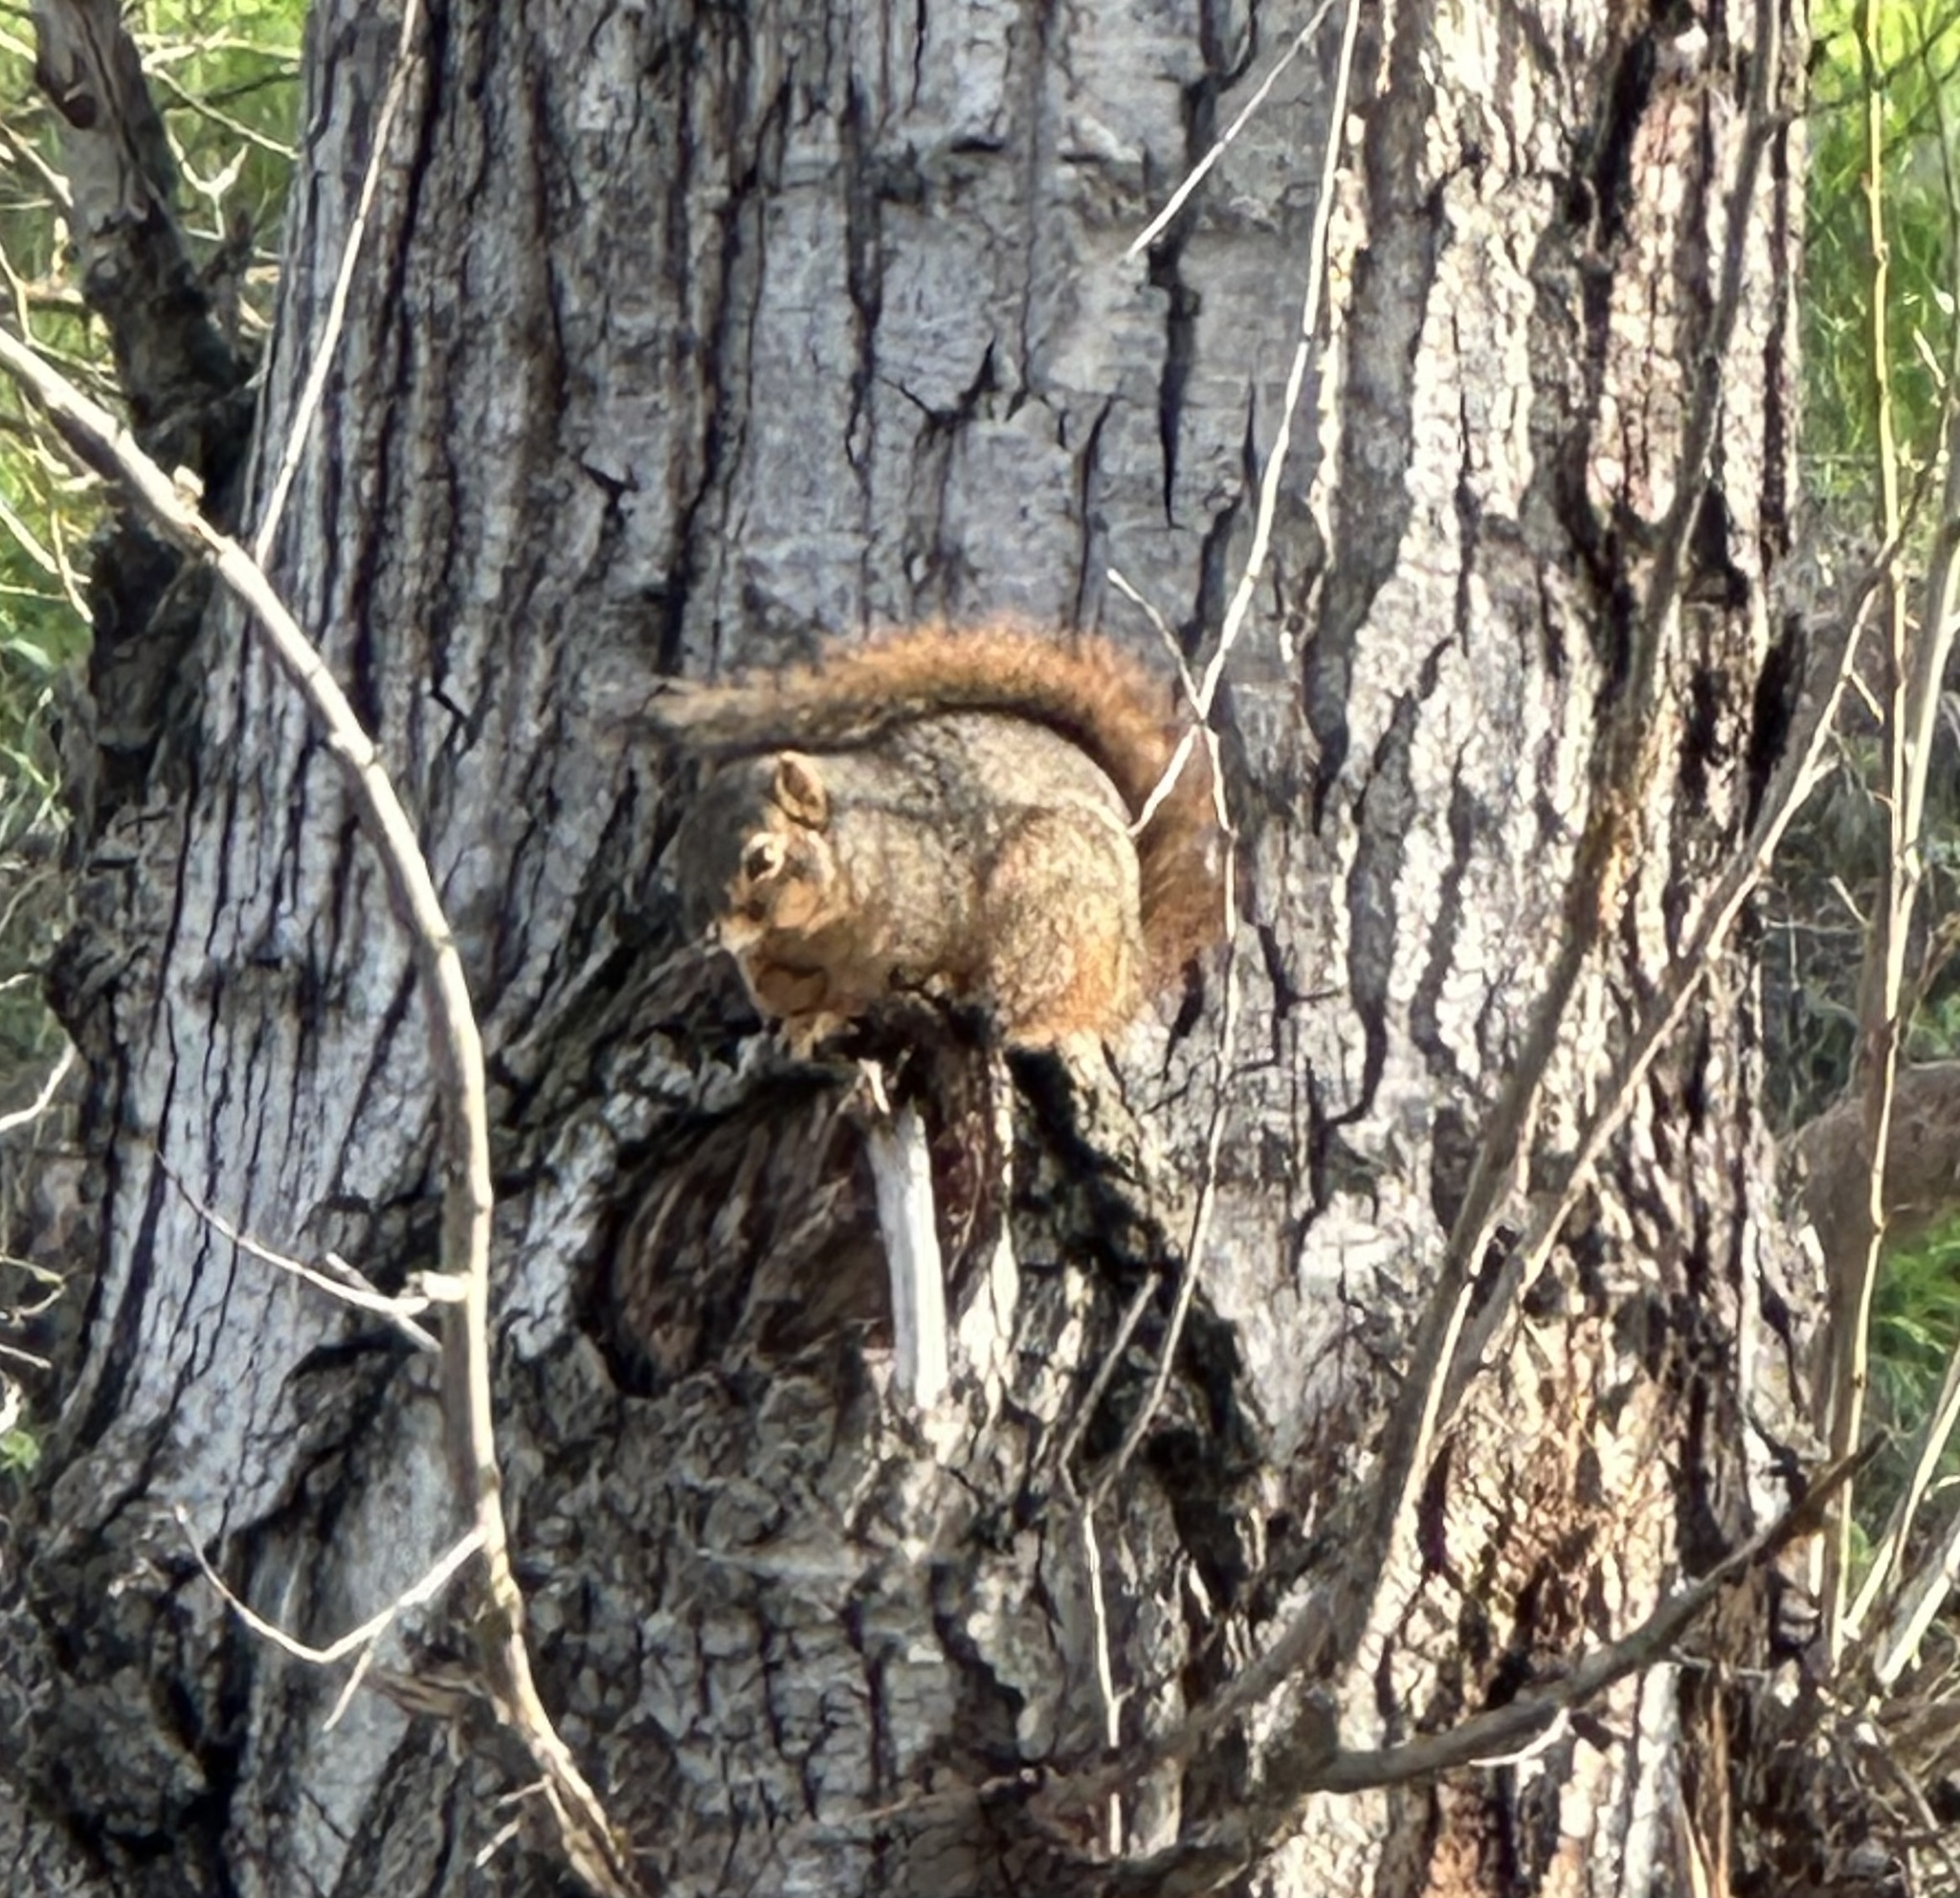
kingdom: Animalia
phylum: Chordata
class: Mammalia
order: Rodentia
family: Sciuridae
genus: Sciurus
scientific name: Sciurus niger
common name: Fox squirrel
